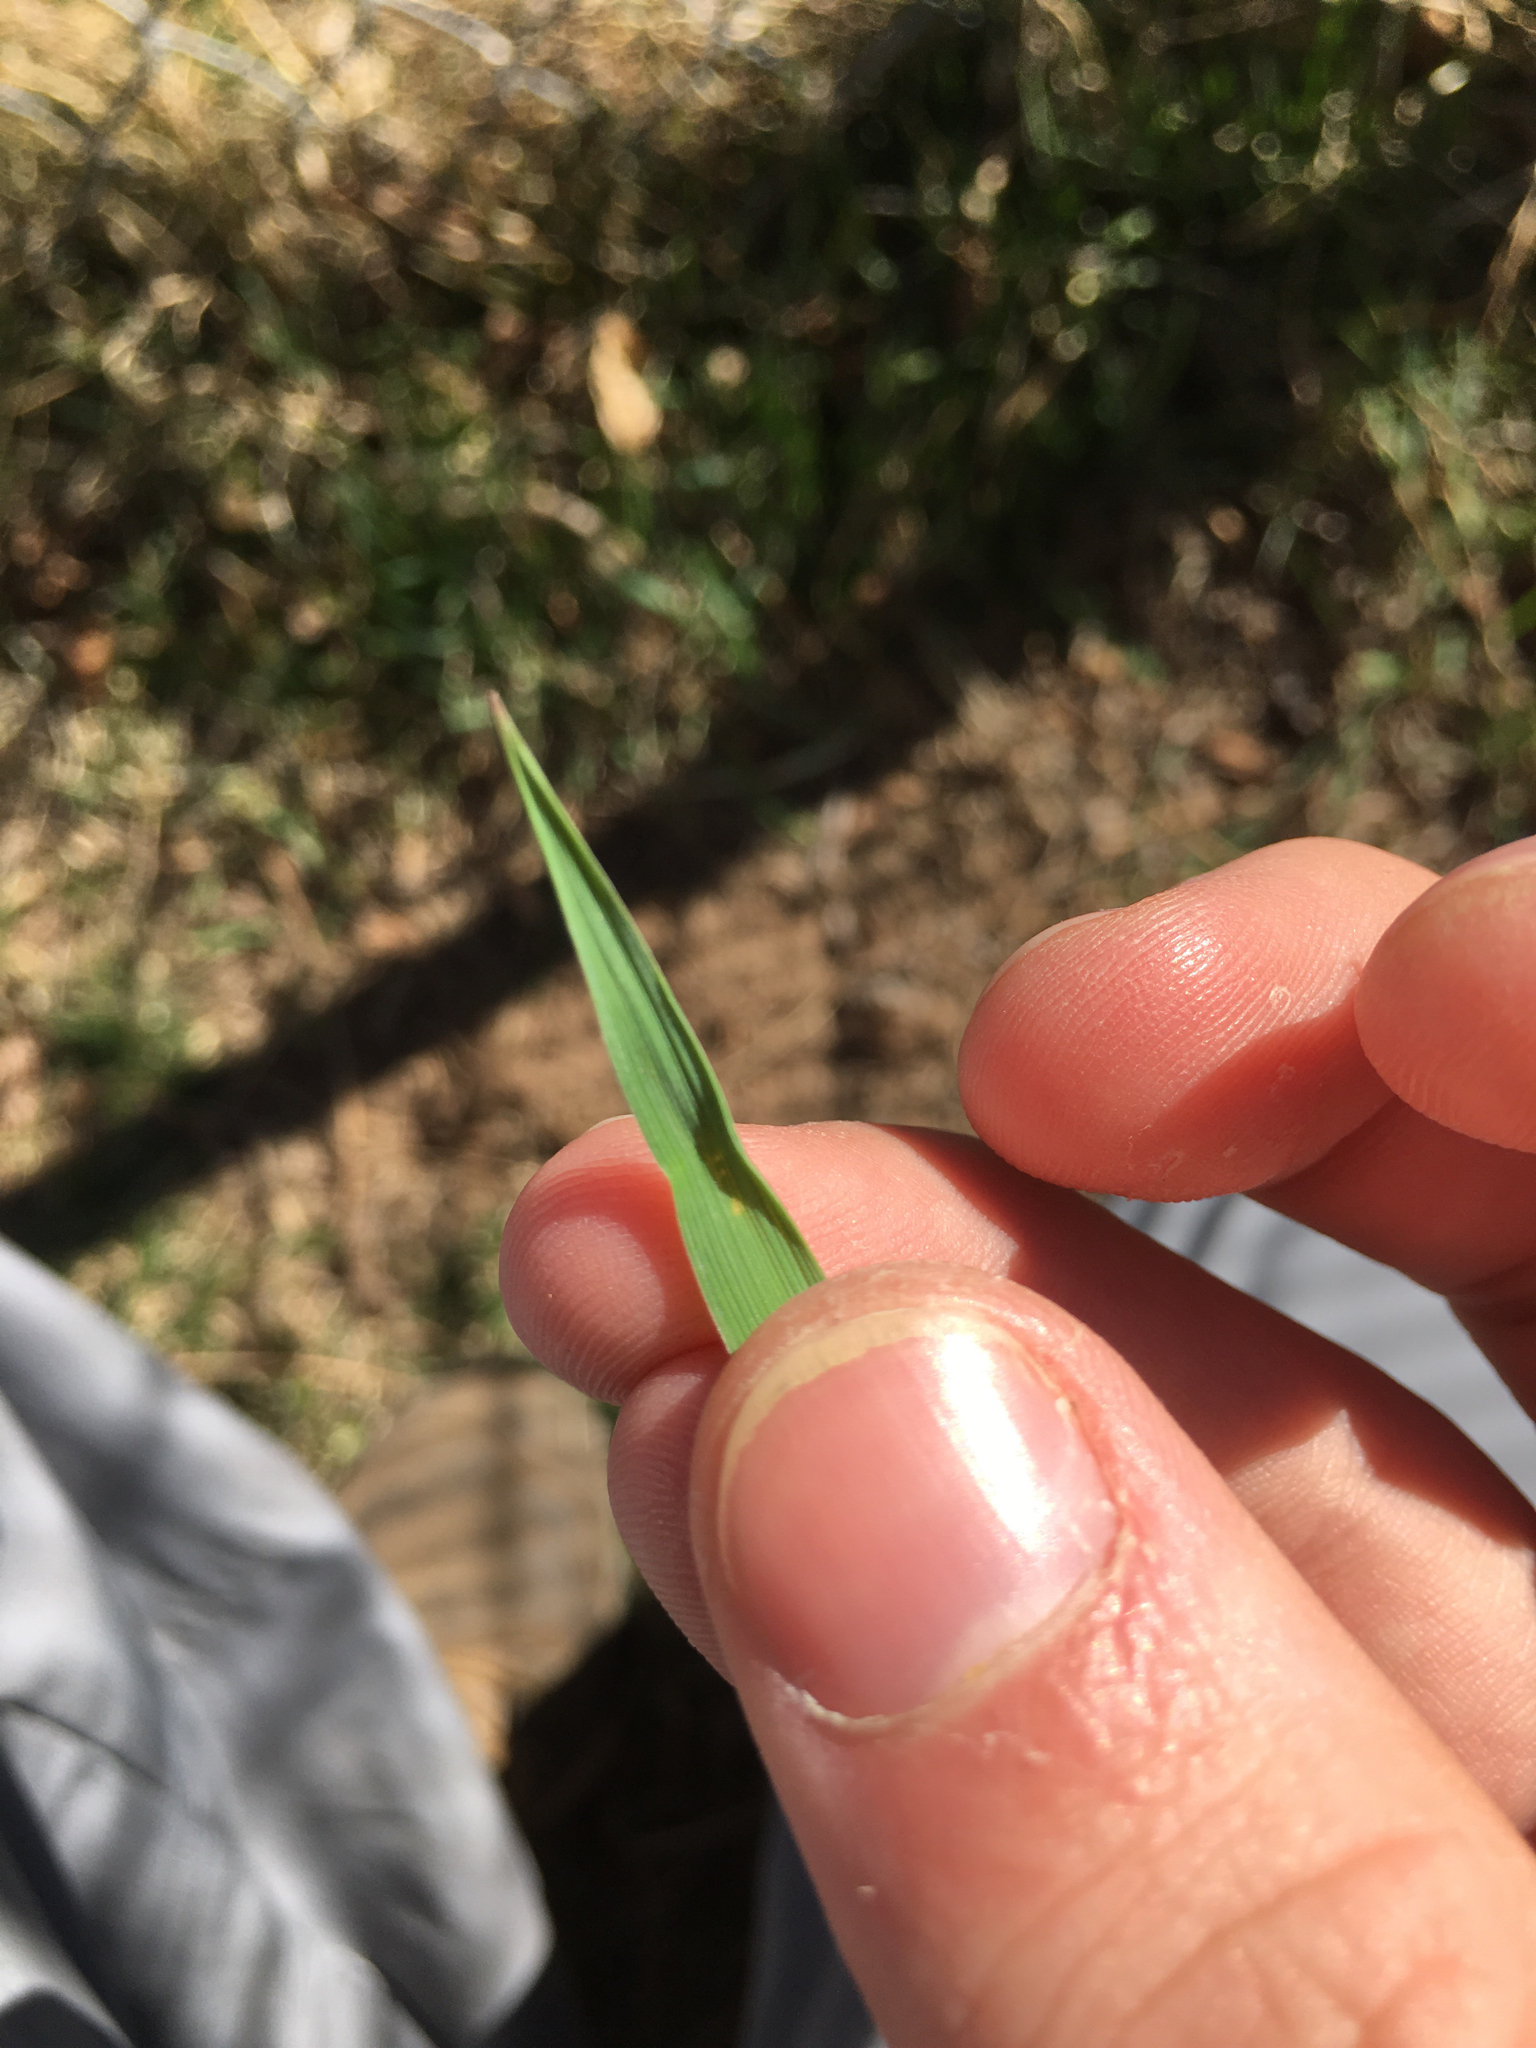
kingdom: Plantae
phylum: Tracheophyta
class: Liliopsida
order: Poales
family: Poaceae
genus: Bromus
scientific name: Bromus inermis
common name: Smooth brome
